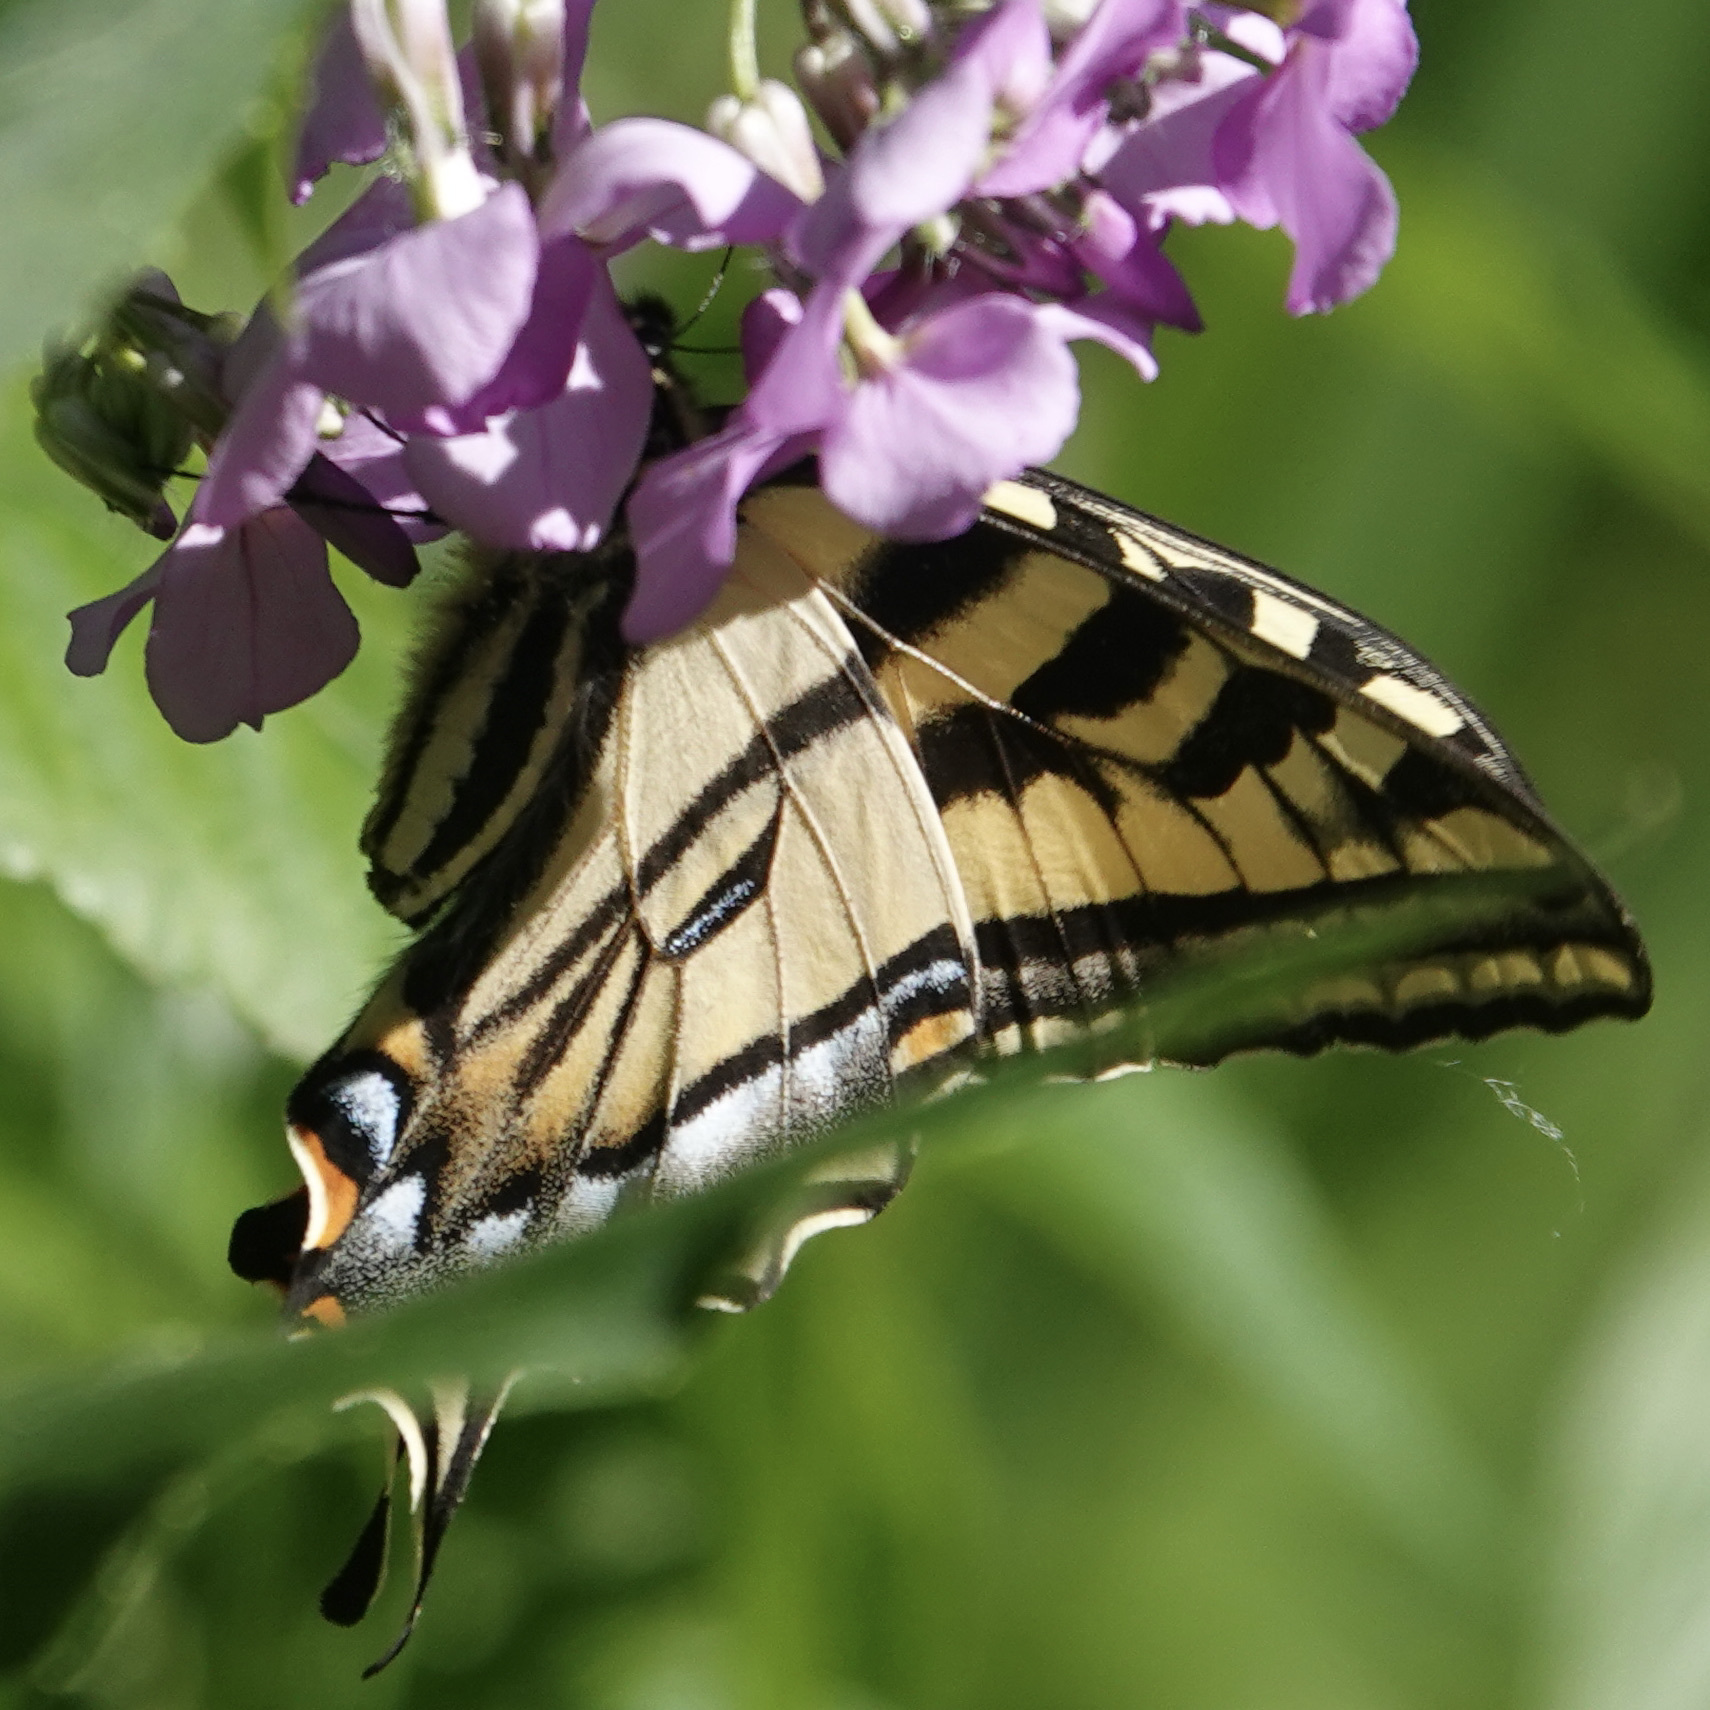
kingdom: Animalia
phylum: Arthropoda
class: Insecta
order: Lepidoptera
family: Papilionidae
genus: Papilio
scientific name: Papilio rutulus
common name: Western tiger swallowtail
